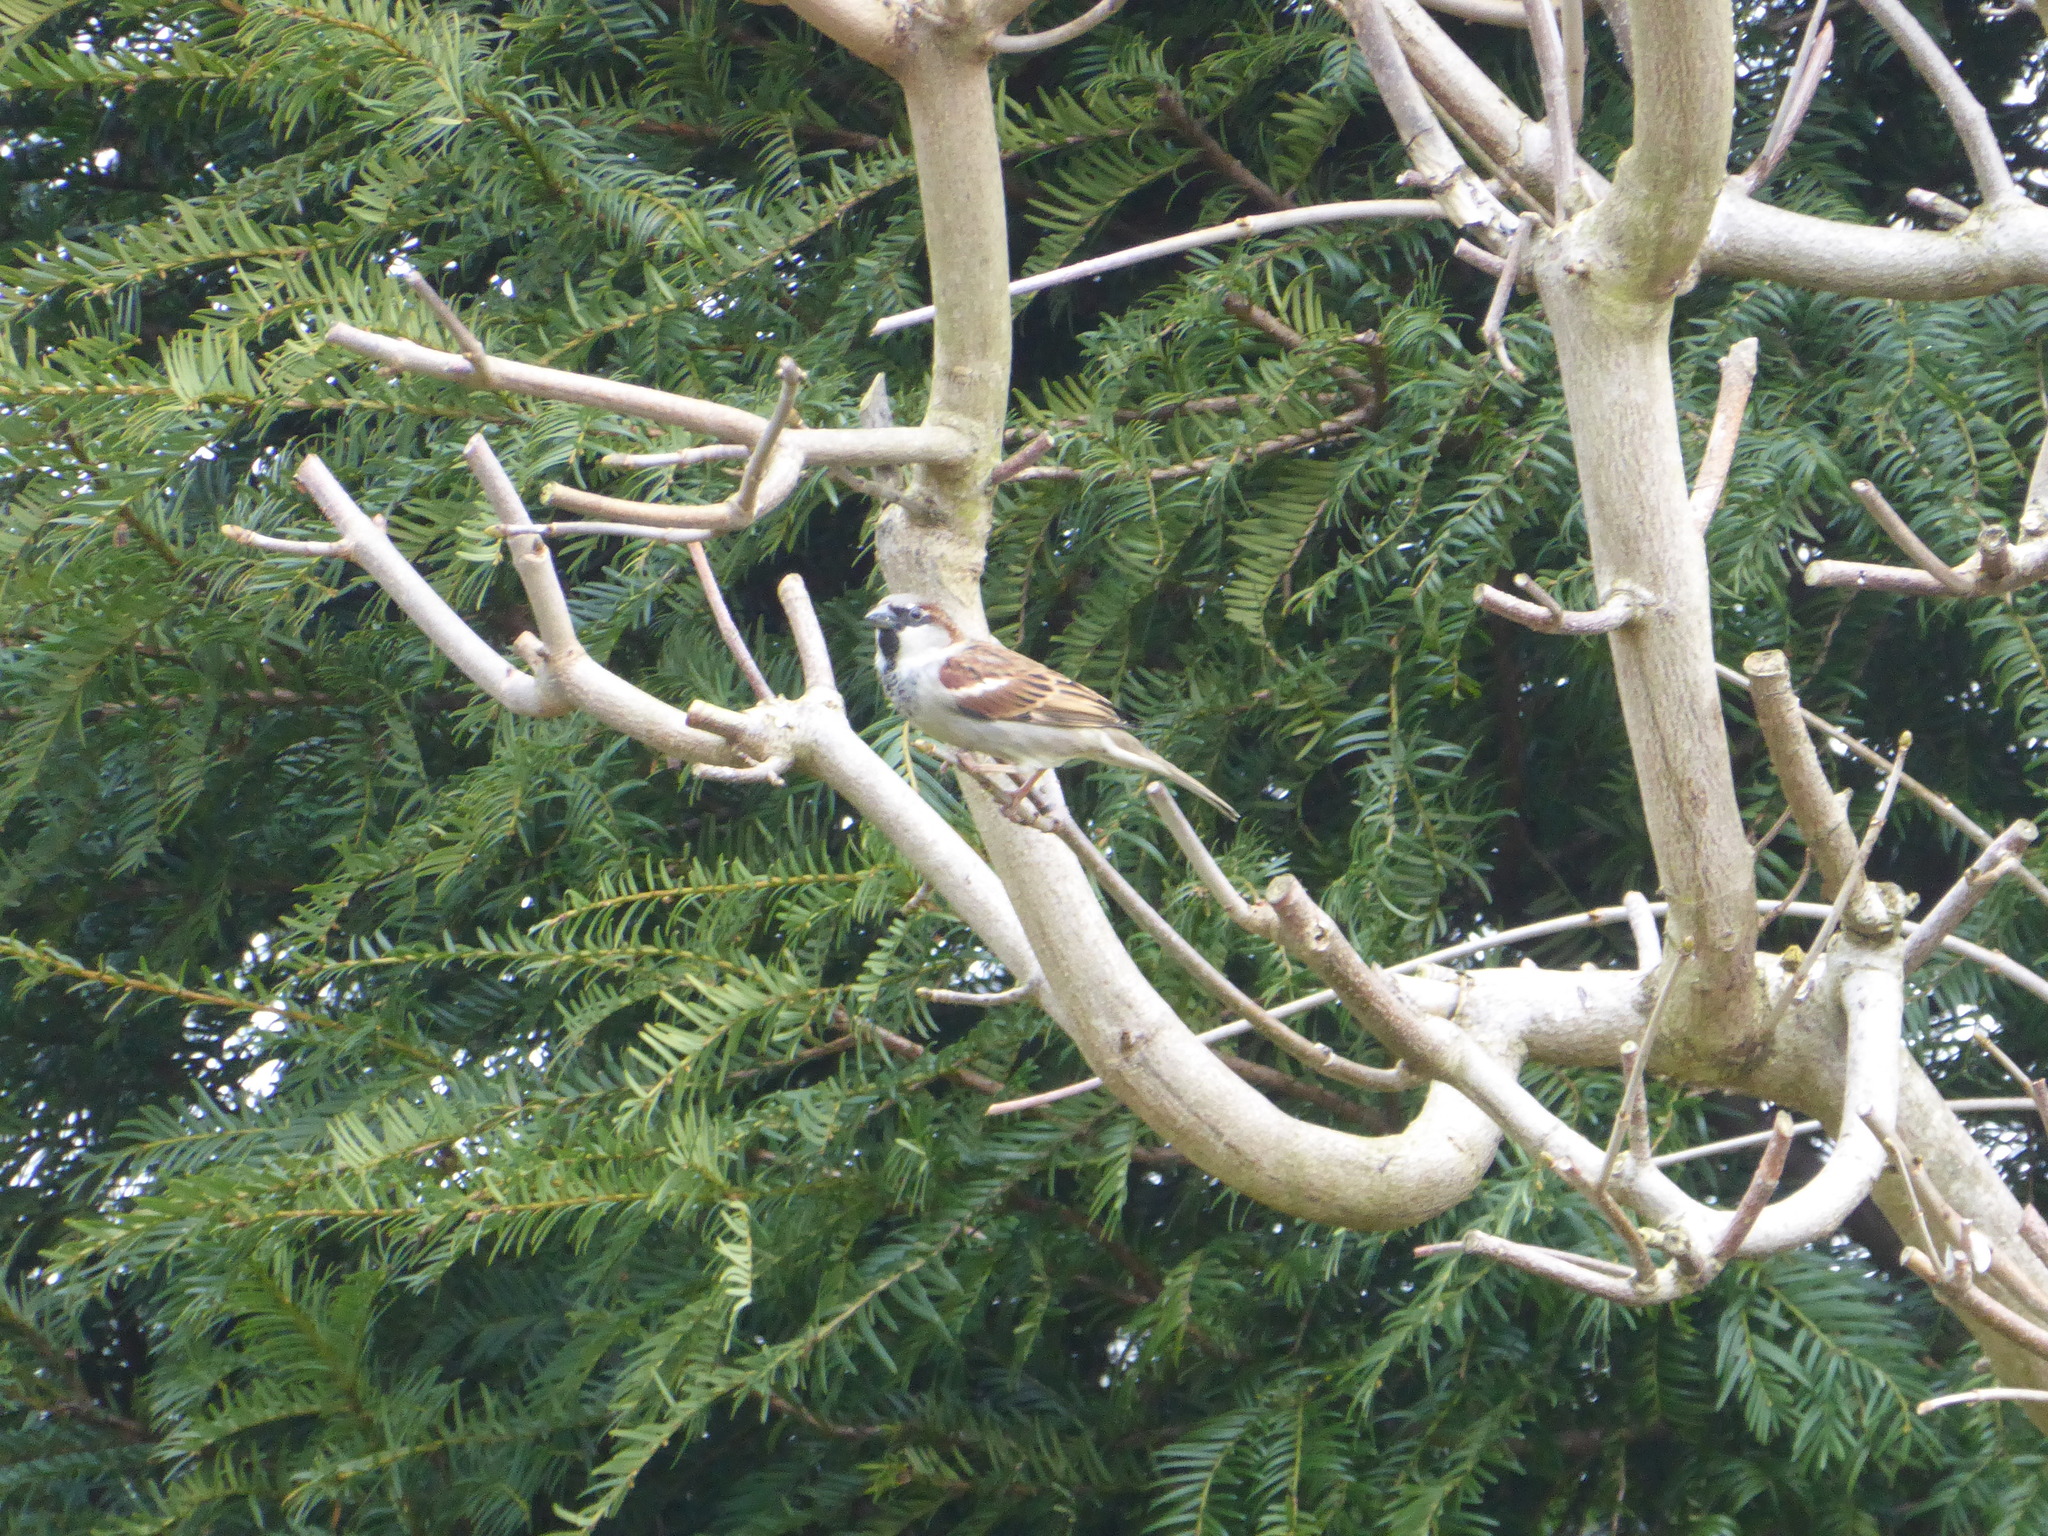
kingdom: Animalia
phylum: Chordata
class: Aves
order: Passeriformes
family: Passeridae
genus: Passer
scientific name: Passer domesticus
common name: House sparrow
